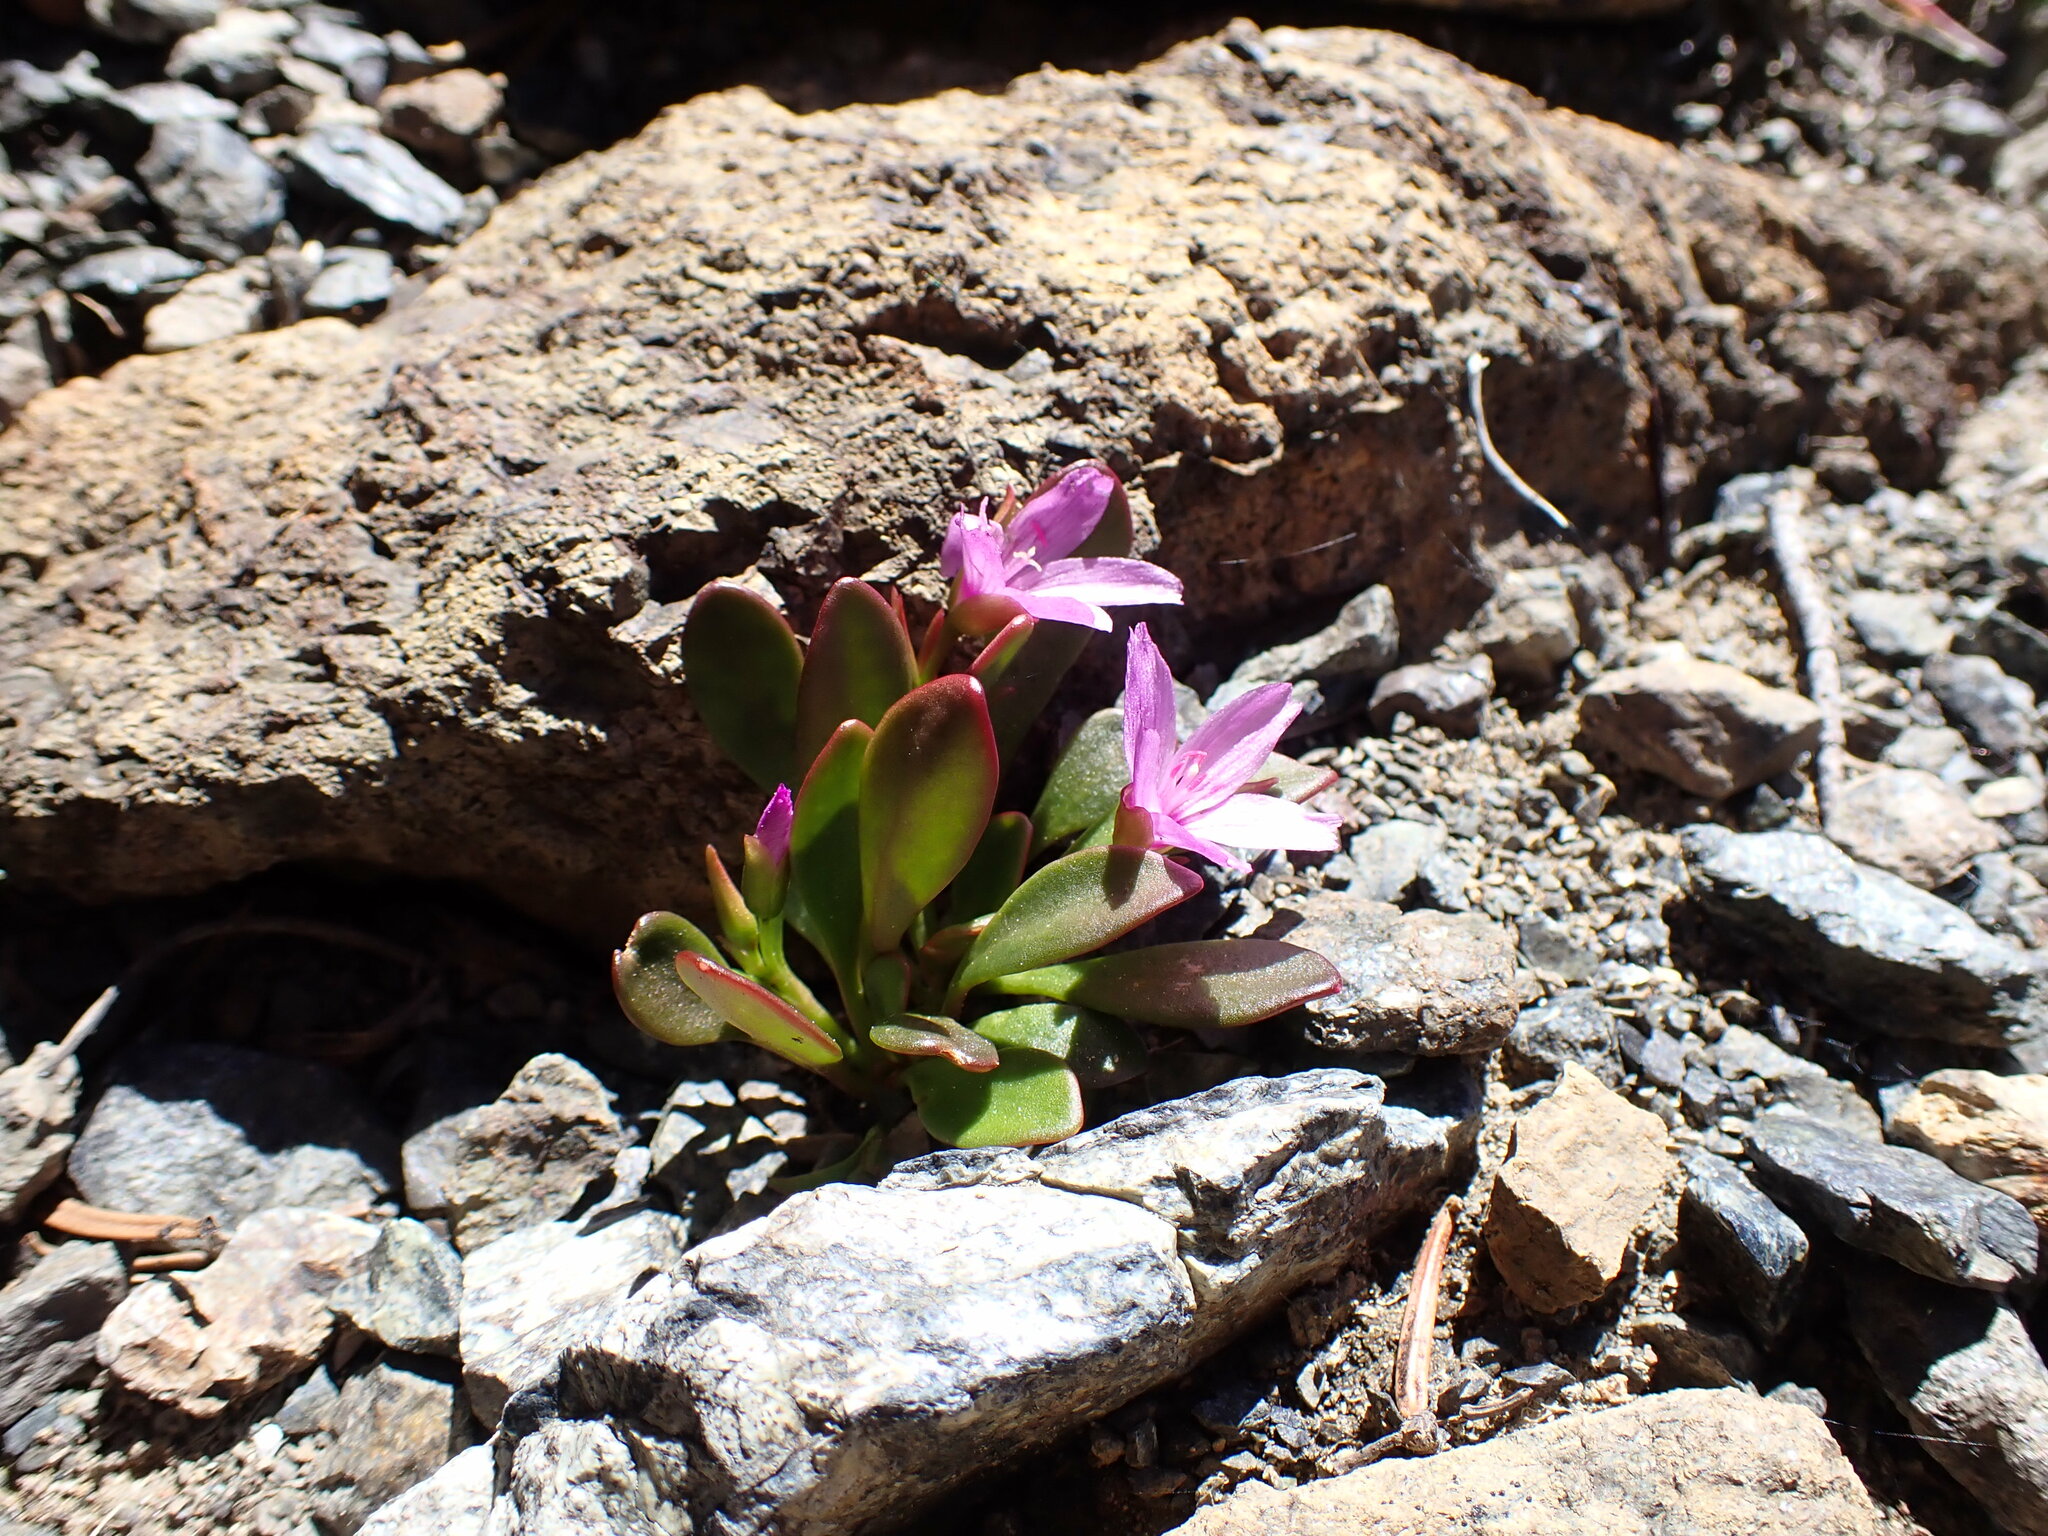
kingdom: Plantae
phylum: Tracheophyta
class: Magnoliopsida
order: Caryophyllales
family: Montiaceae
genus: Claytonia
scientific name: Claytonia megarhiza
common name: Alpine spring beauty
